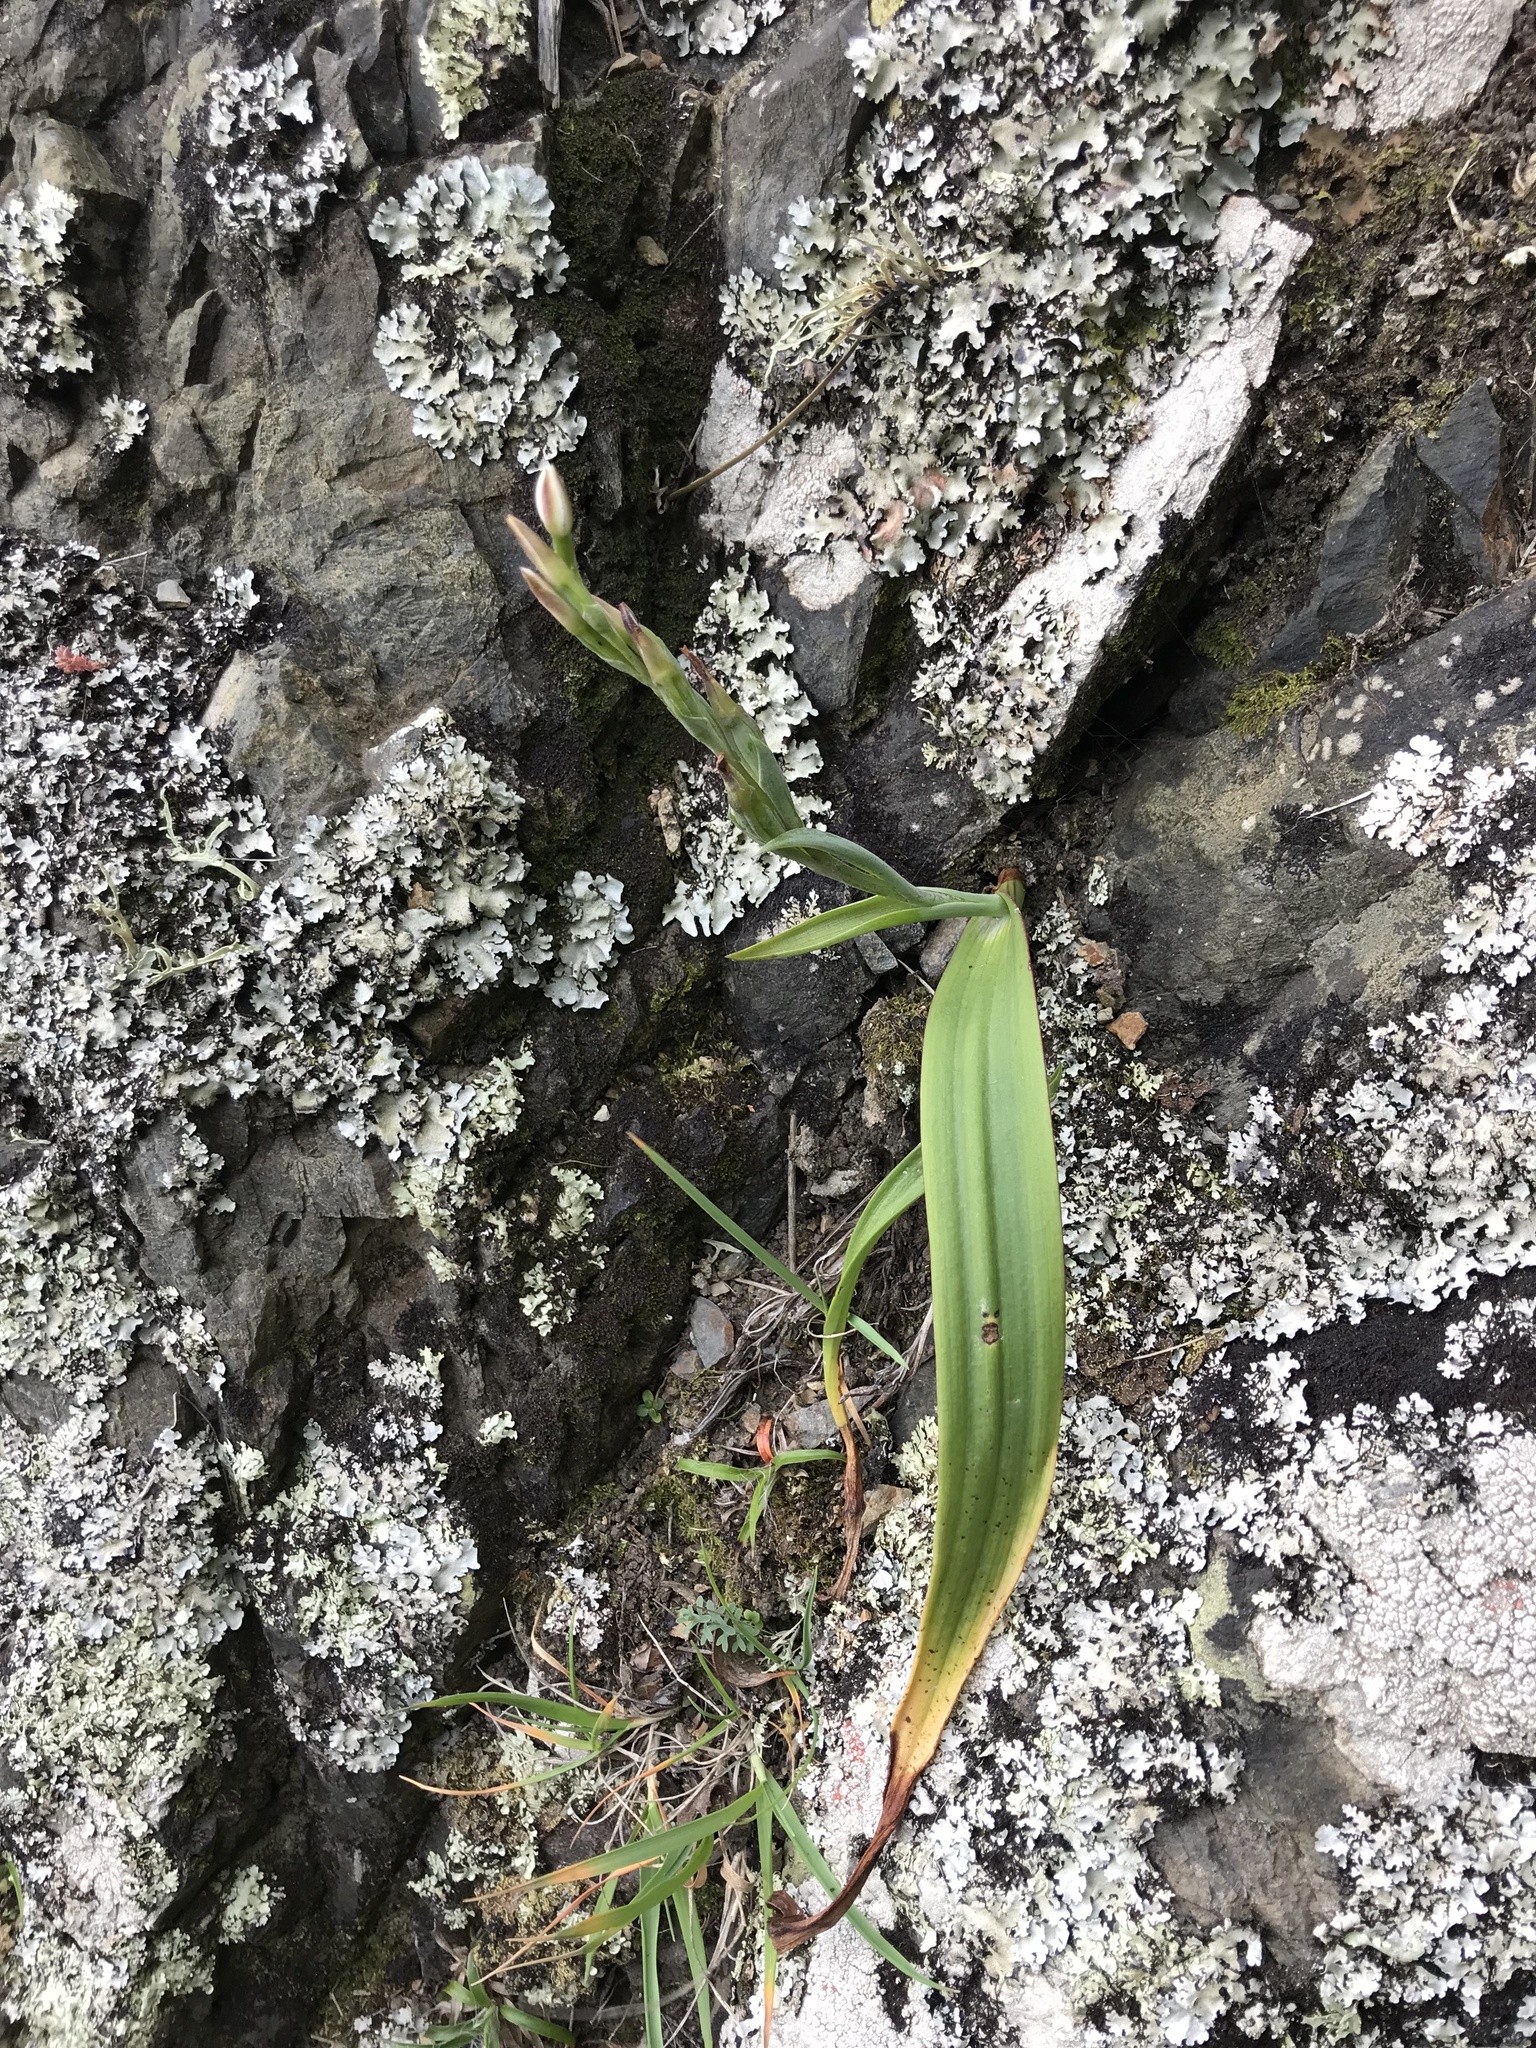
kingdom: Plantae
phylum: Tracheophyta
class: Liliopsida
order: Asparagales
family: Orchidaceae
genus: Thelymitra
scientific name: Thelymitra longifolia
